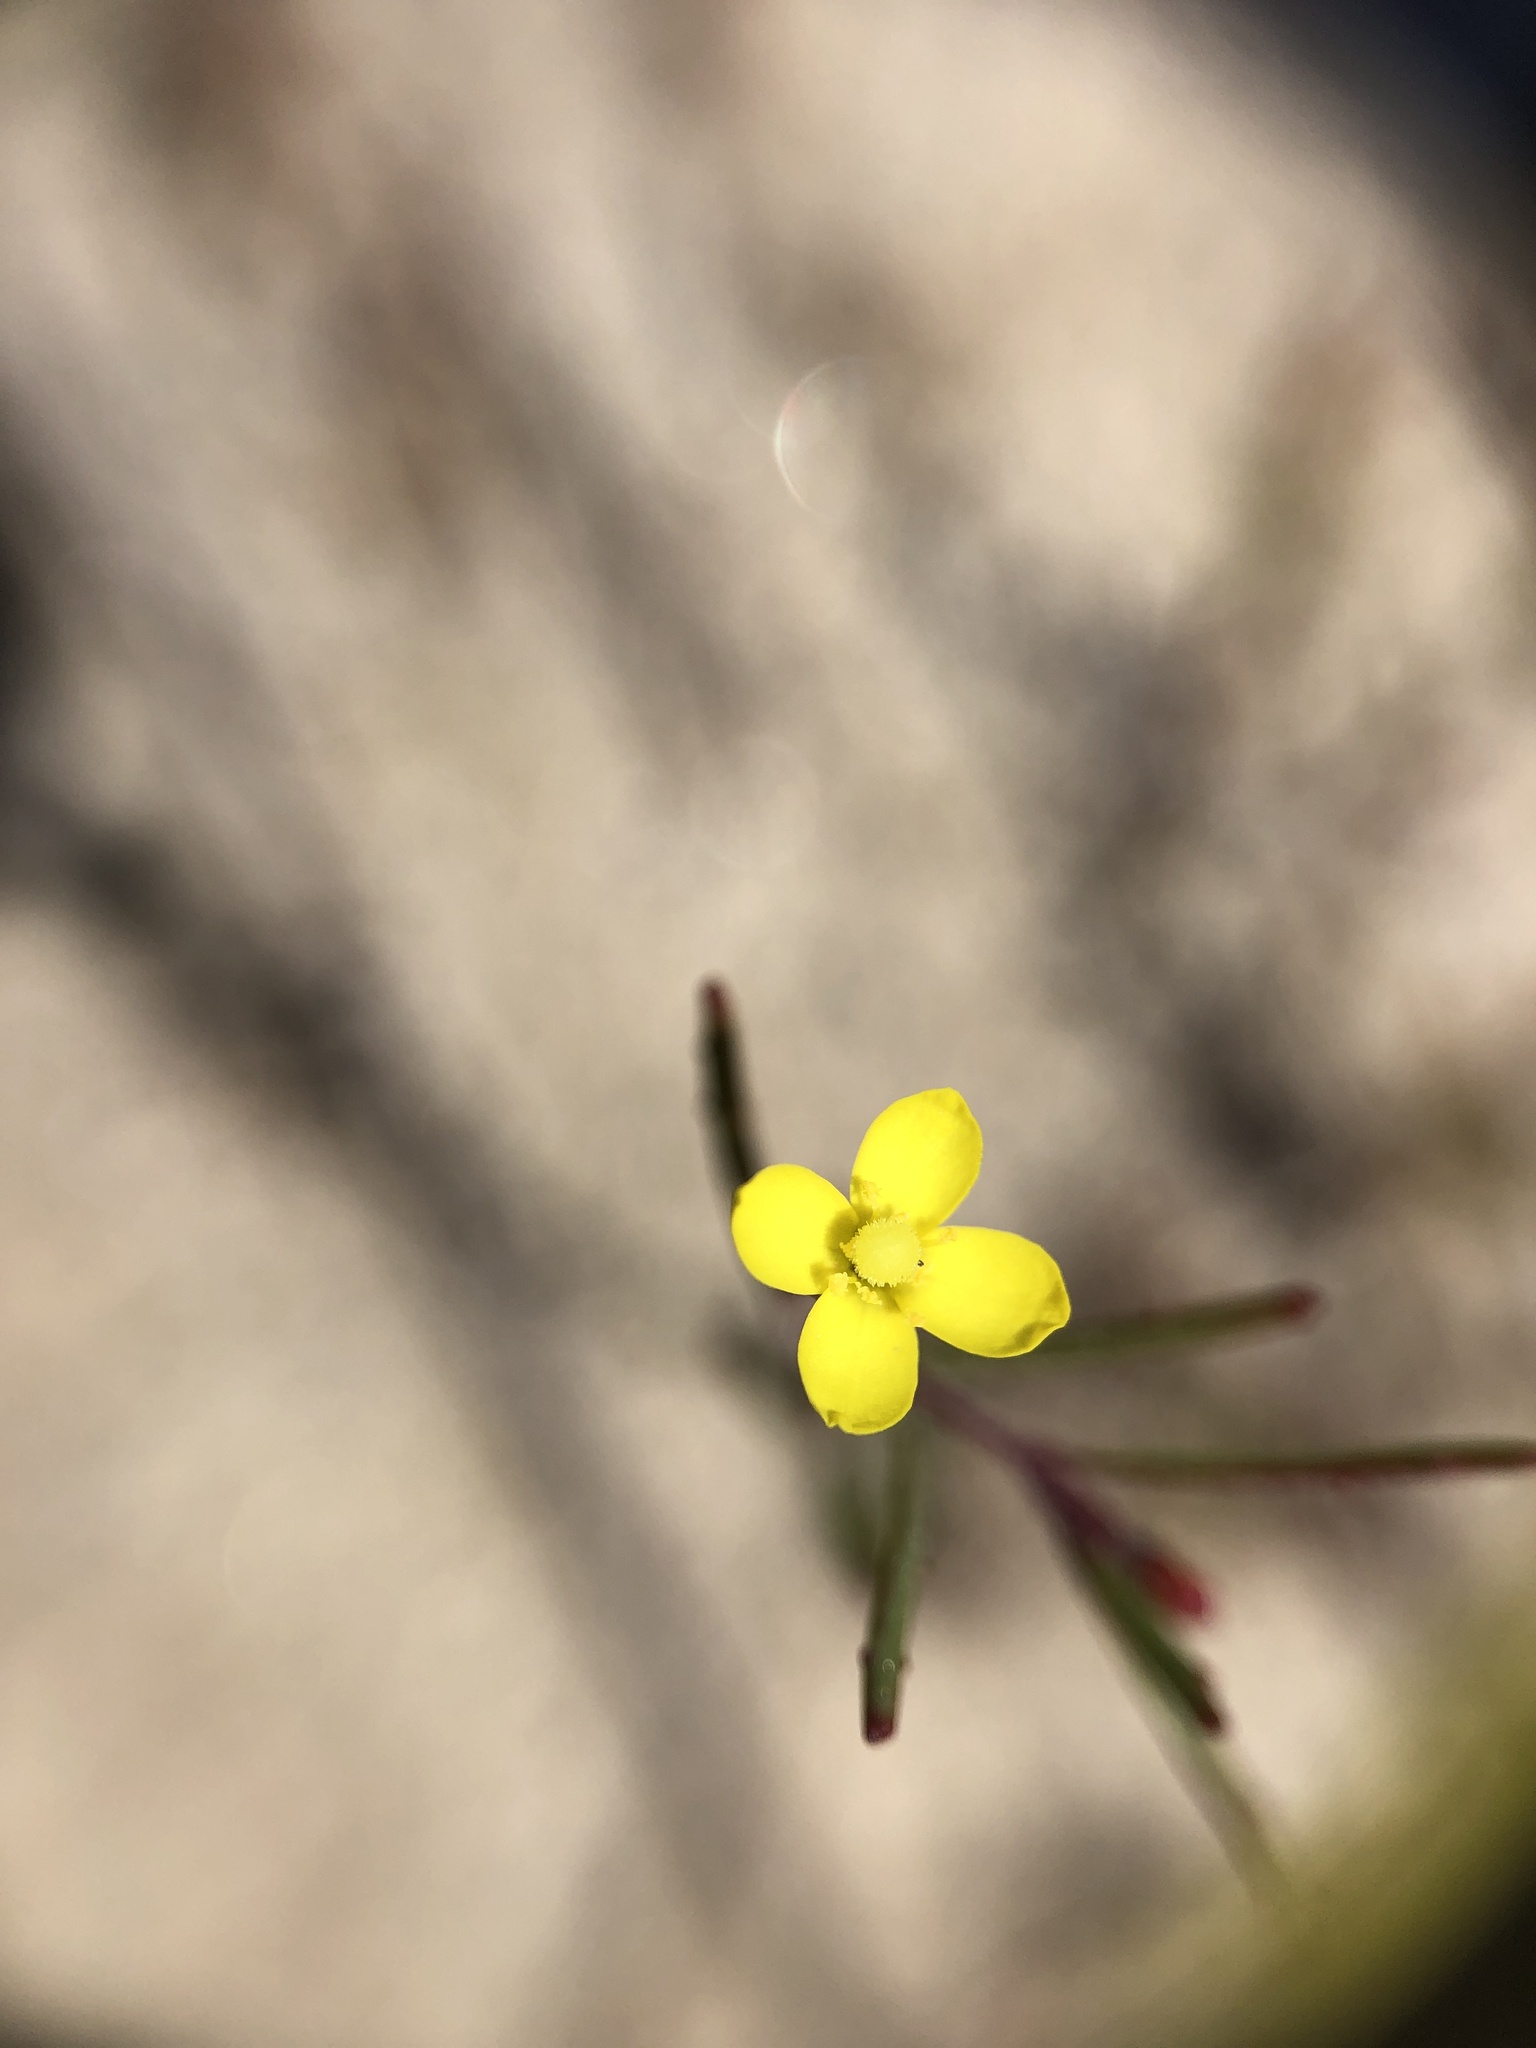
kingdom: Plantae
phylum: Tracheophyta
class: Magnoliopsida
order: Myrtales
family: Onagraceae
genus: Camissonia
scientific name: Camissonia strigulosa
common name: Contorted-primrose
